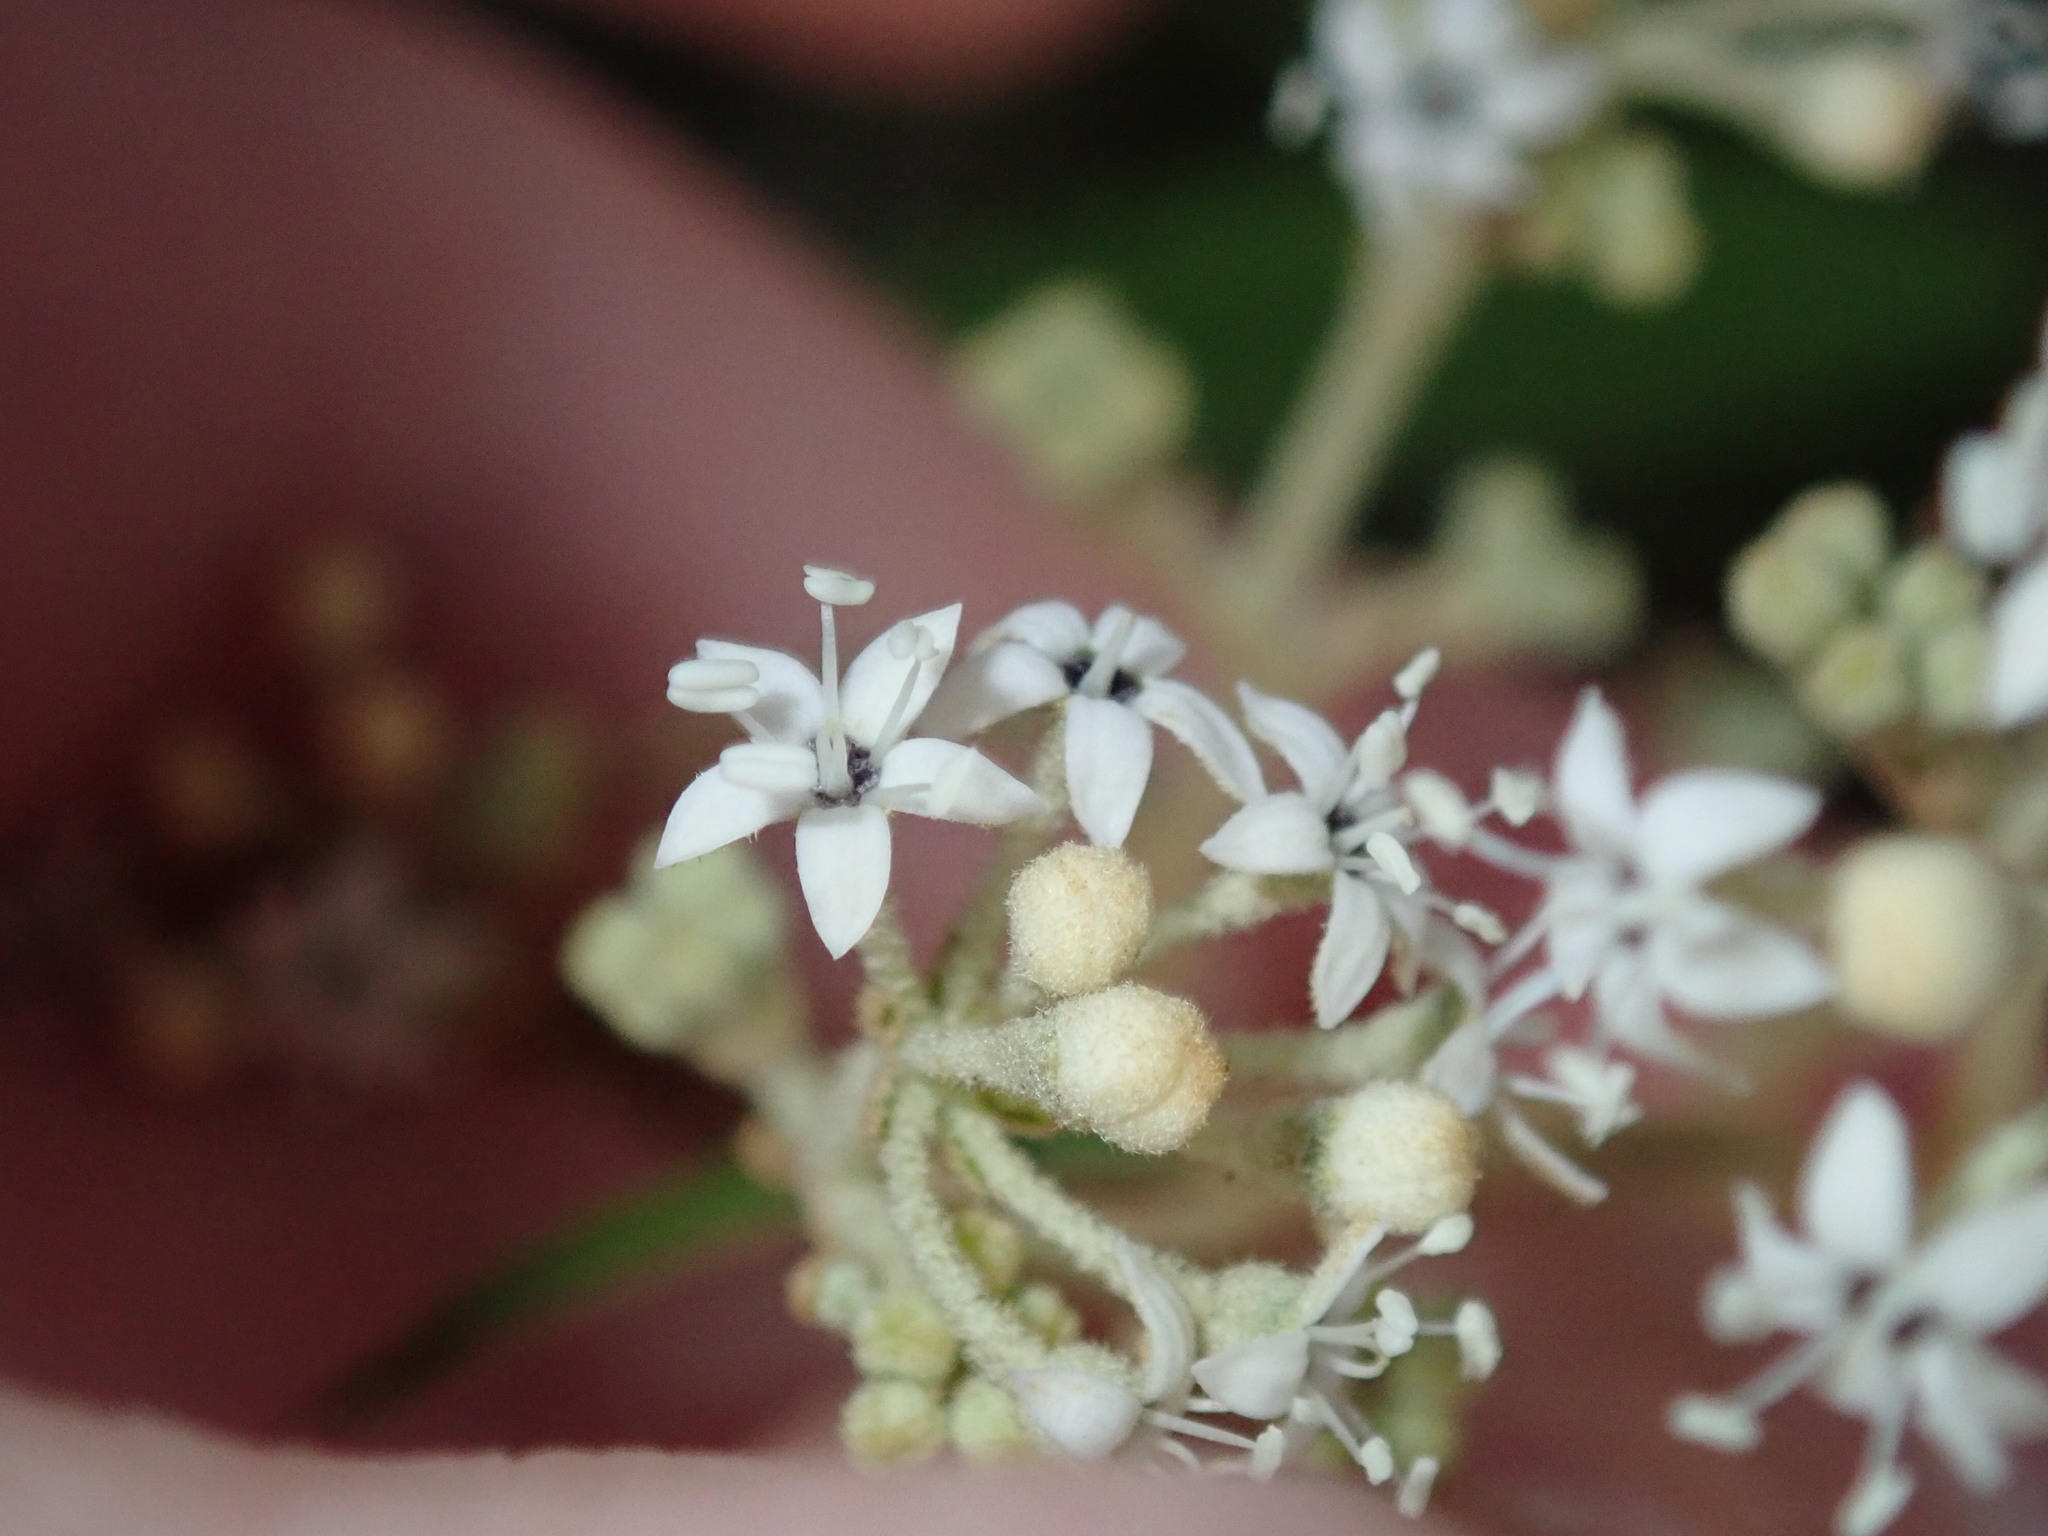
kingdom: Plantae
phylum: Tracheophyta
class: Magnoliopsida
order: Apiales
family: Araliaceae
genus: Astrotricha
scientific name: Astrotricha longifolia
